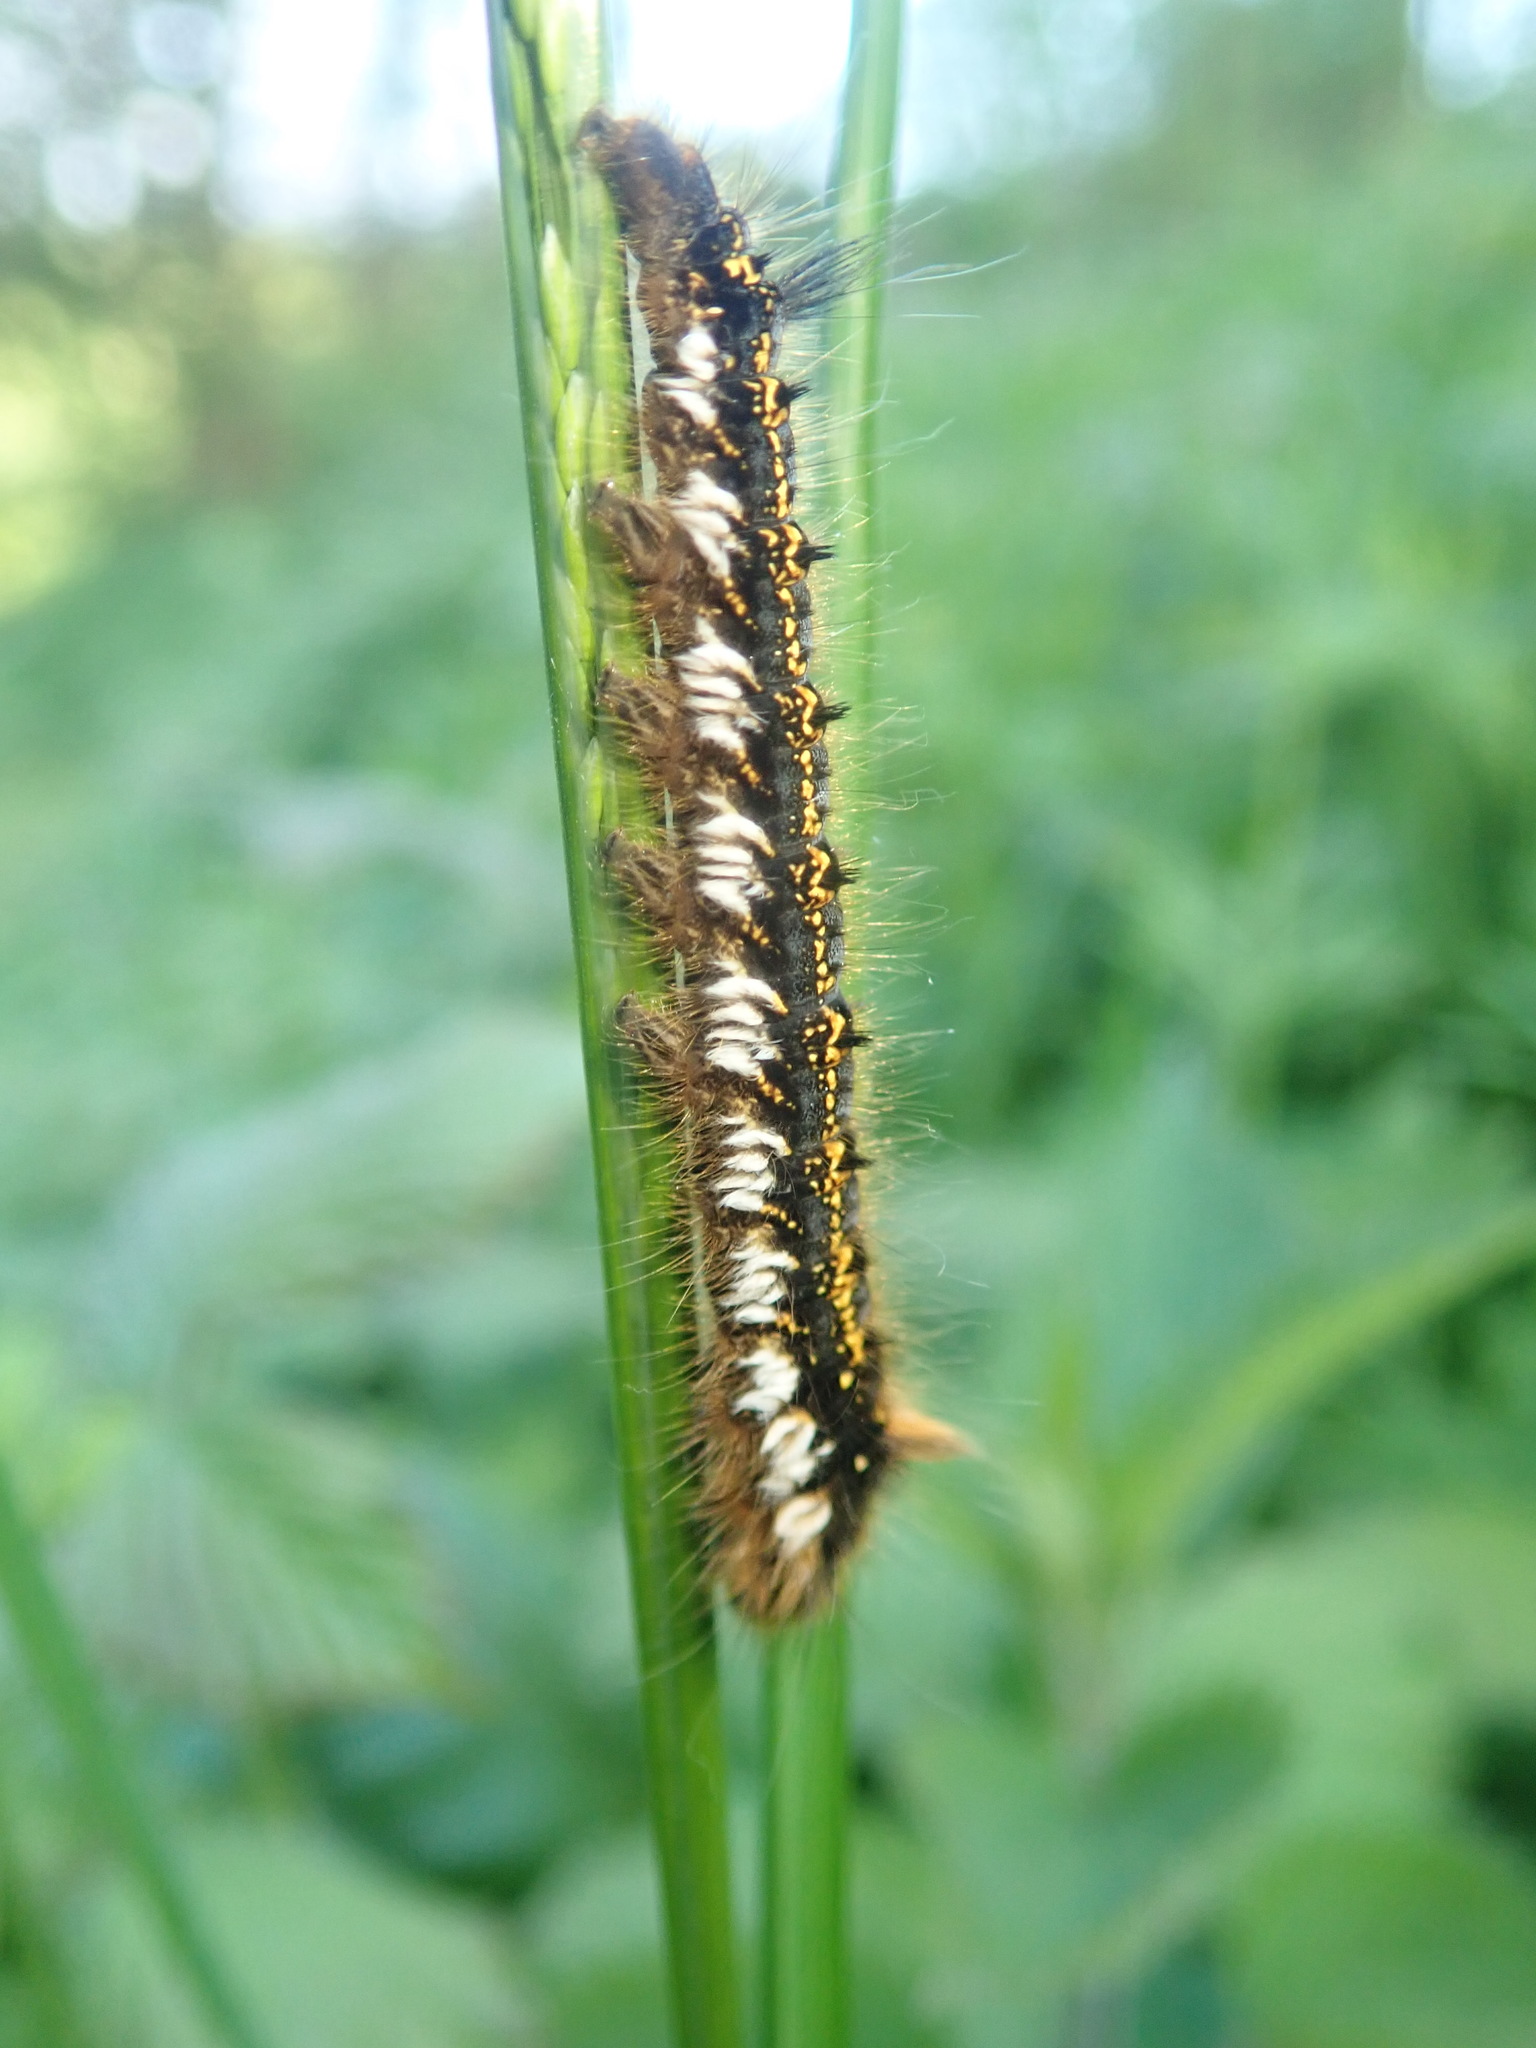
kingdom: Animalia
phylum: Arthropoda
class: Insecta
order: Lepidoptera
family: Lasiocampidae
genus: Euthrix
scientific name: Euthrix potatoria
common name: Drinker
